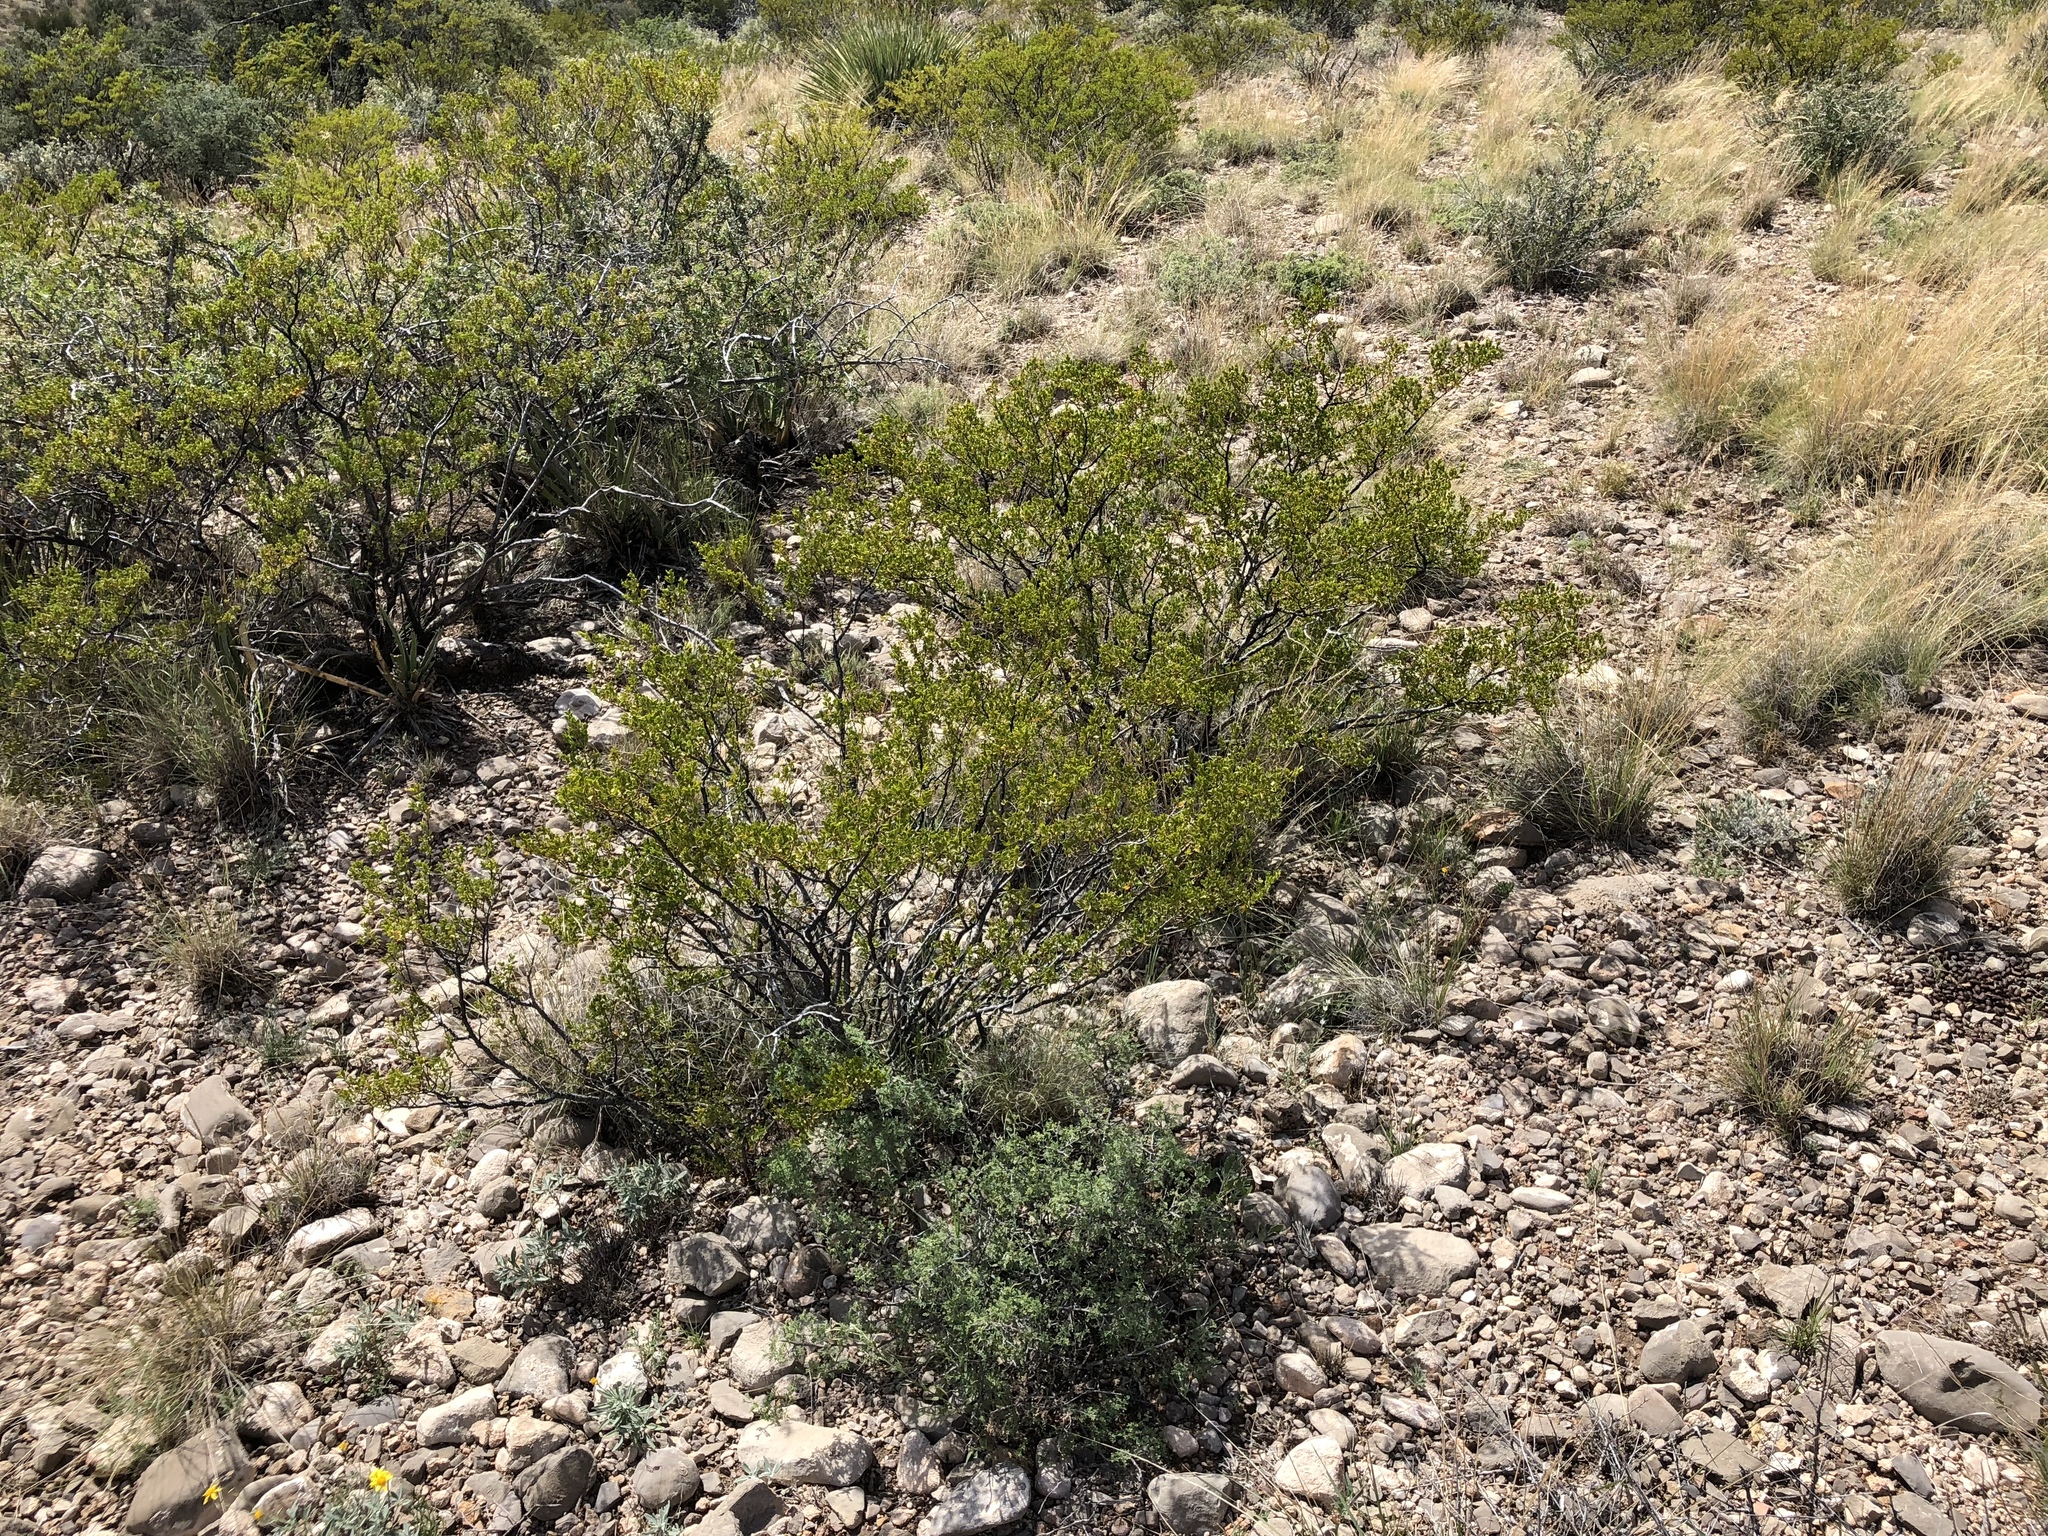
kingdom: Plantae
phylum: Tracheophyta
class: Magnoliopsida
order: Zygophyllales
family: Zygophyllaceae
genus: Larrea
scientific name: Larrea tridentata
